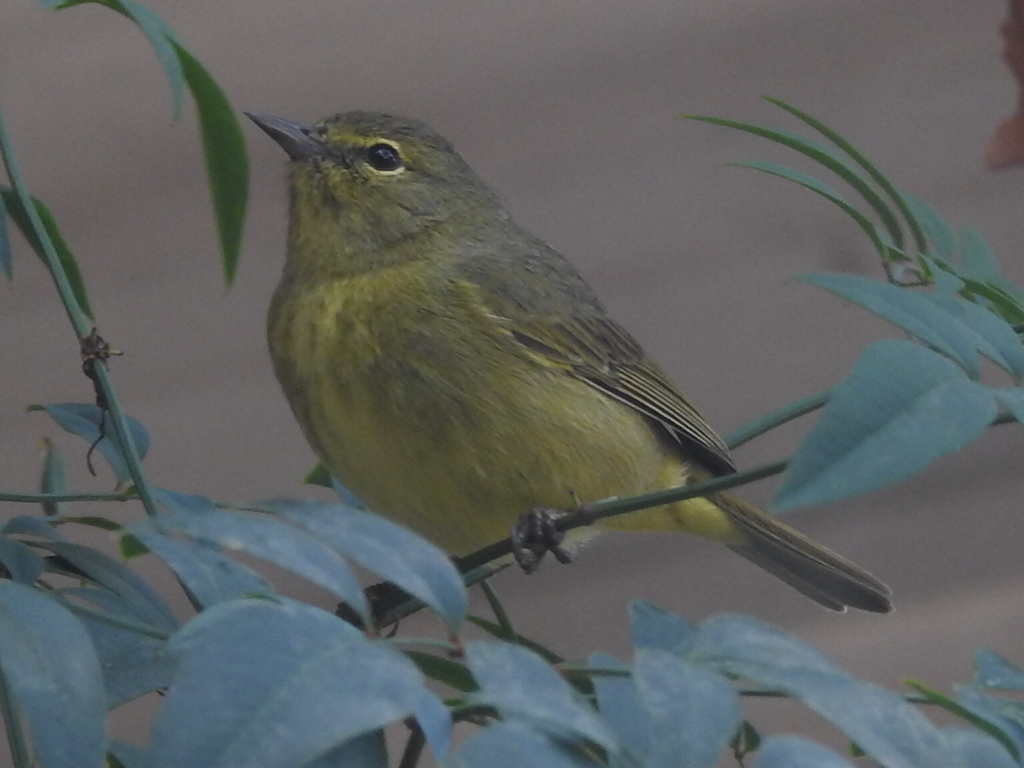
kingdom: Animalia
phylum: Chordata
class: Aves
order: Passeriformes
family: Parulidae
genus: Leiothlypis
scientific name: Leiothlypis celata
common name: Orange-crowned warbler
